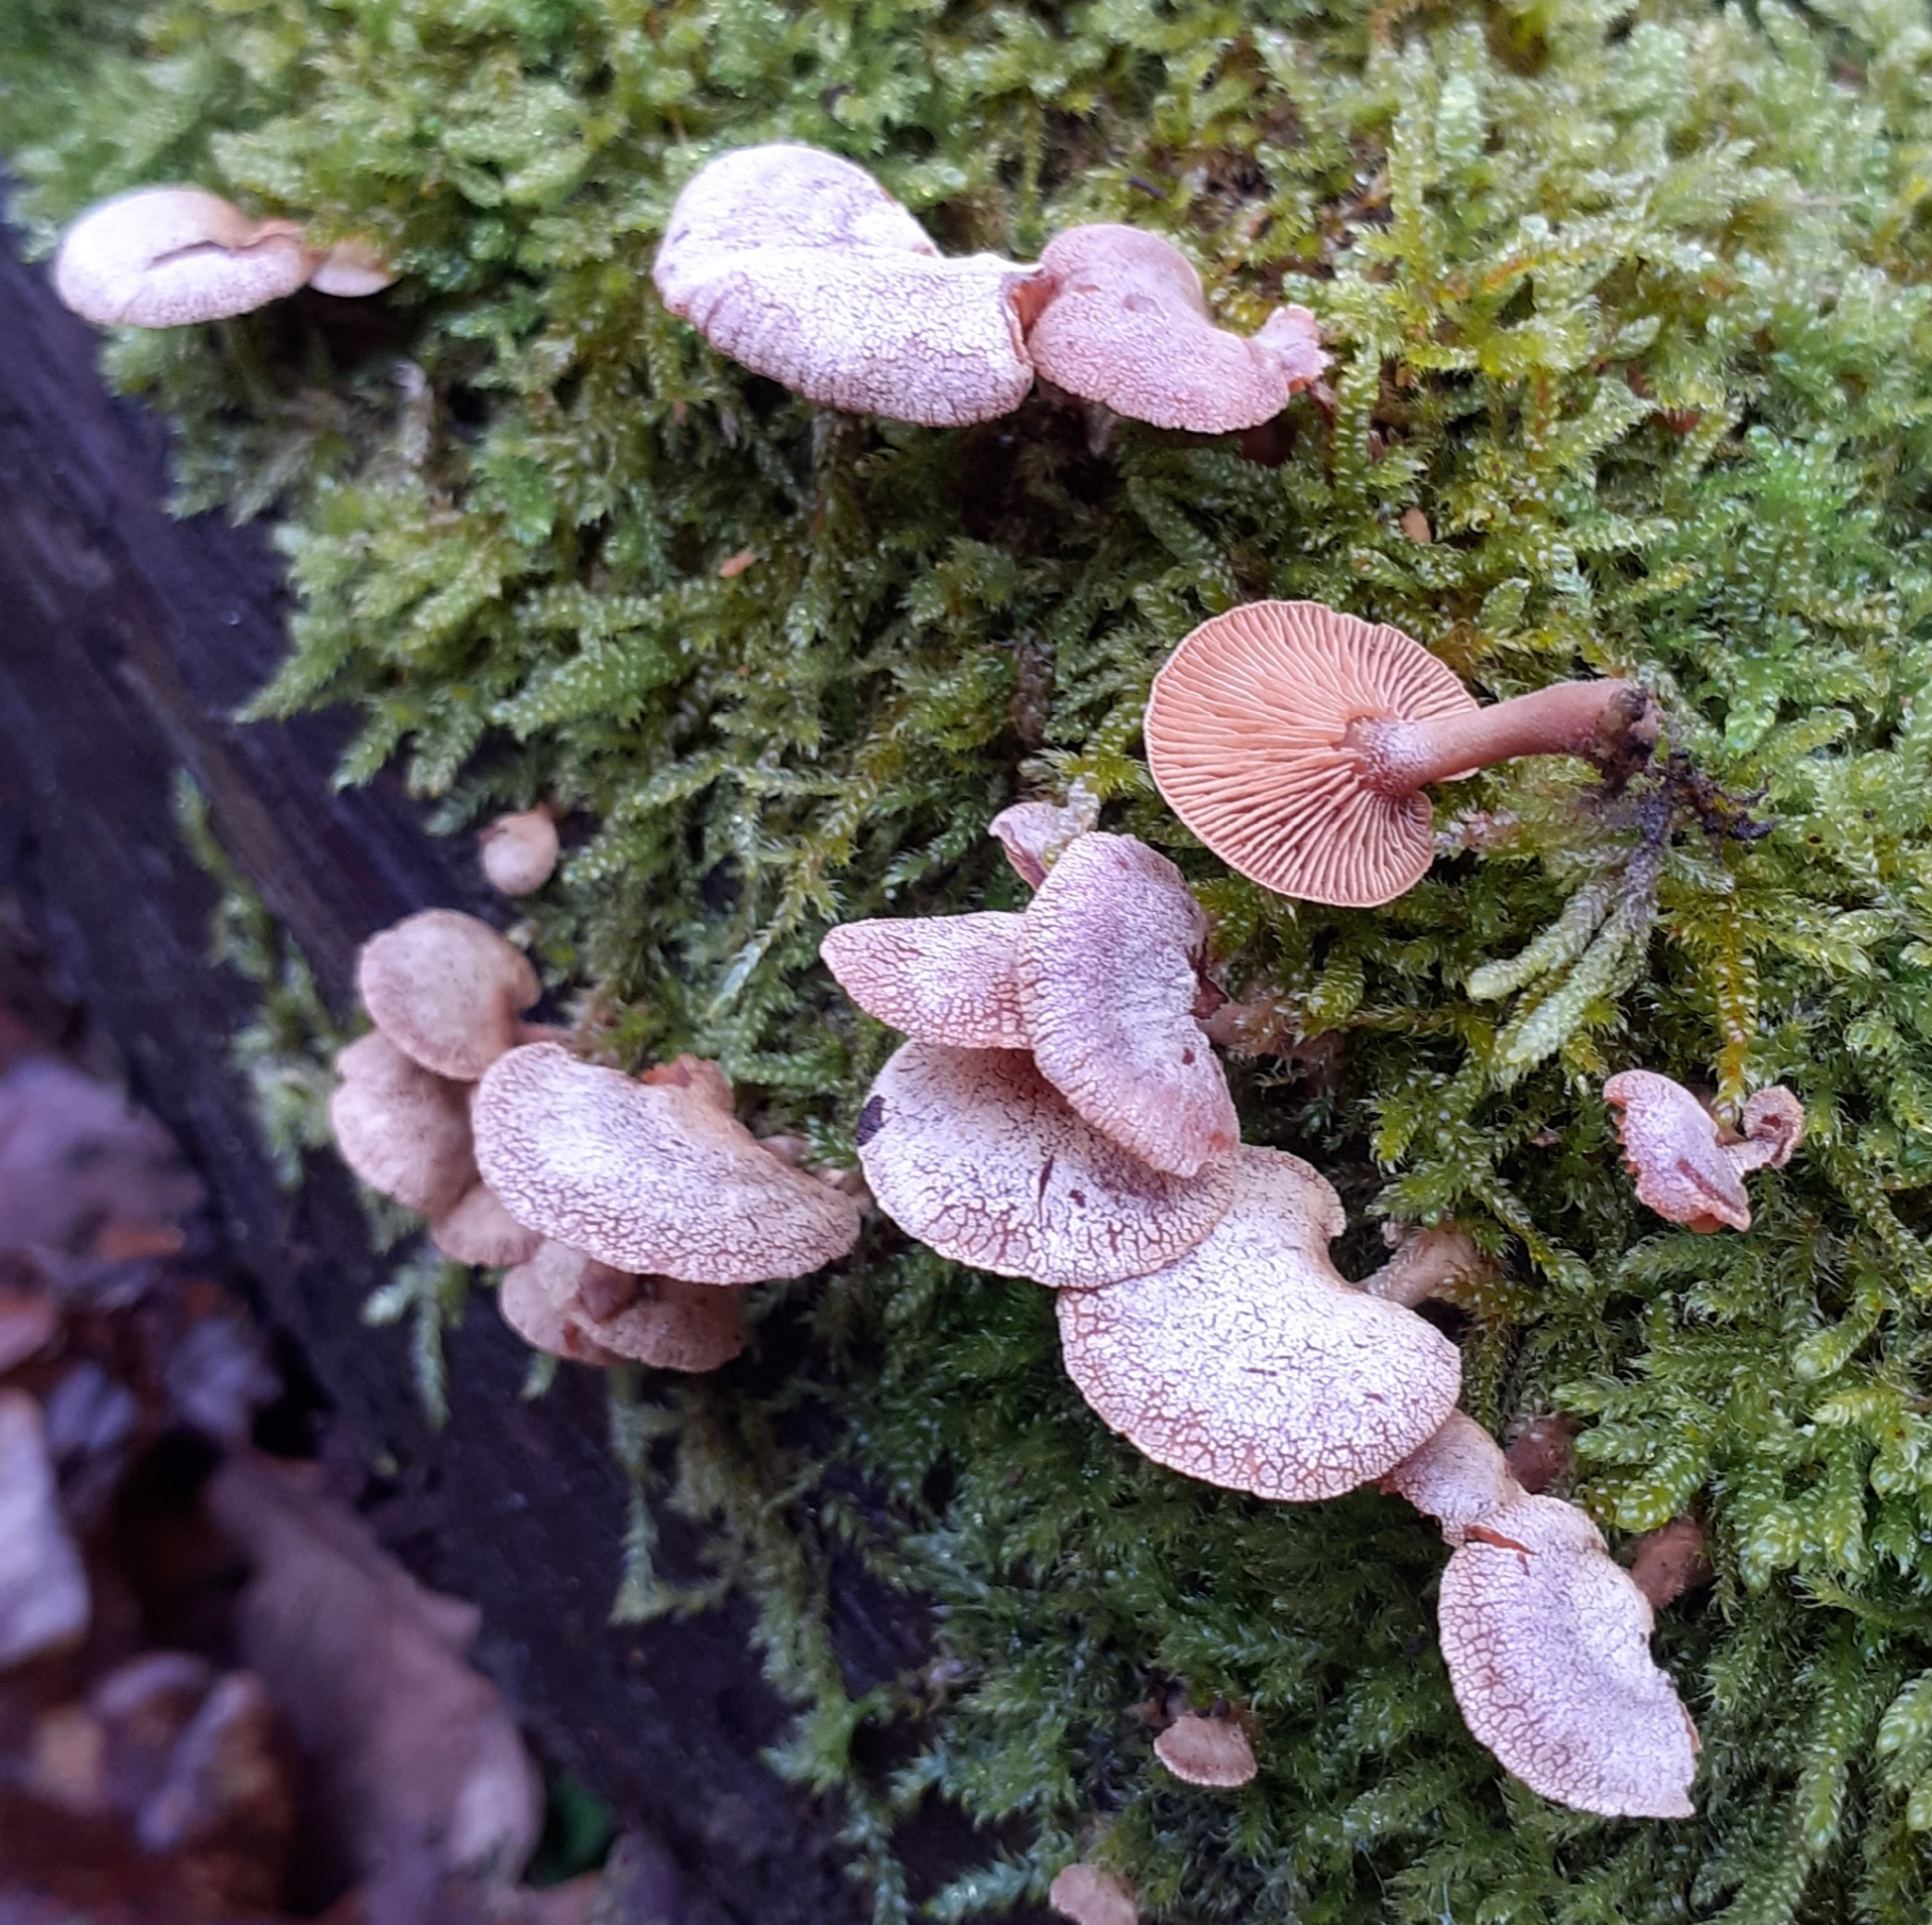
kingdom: Fungi
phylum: Basidiomycota
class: Agaricomycetes
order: Agaricales
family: Mycenaceae
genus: Panellus
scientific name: Panellus stipticus
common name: Bitter oysterling
